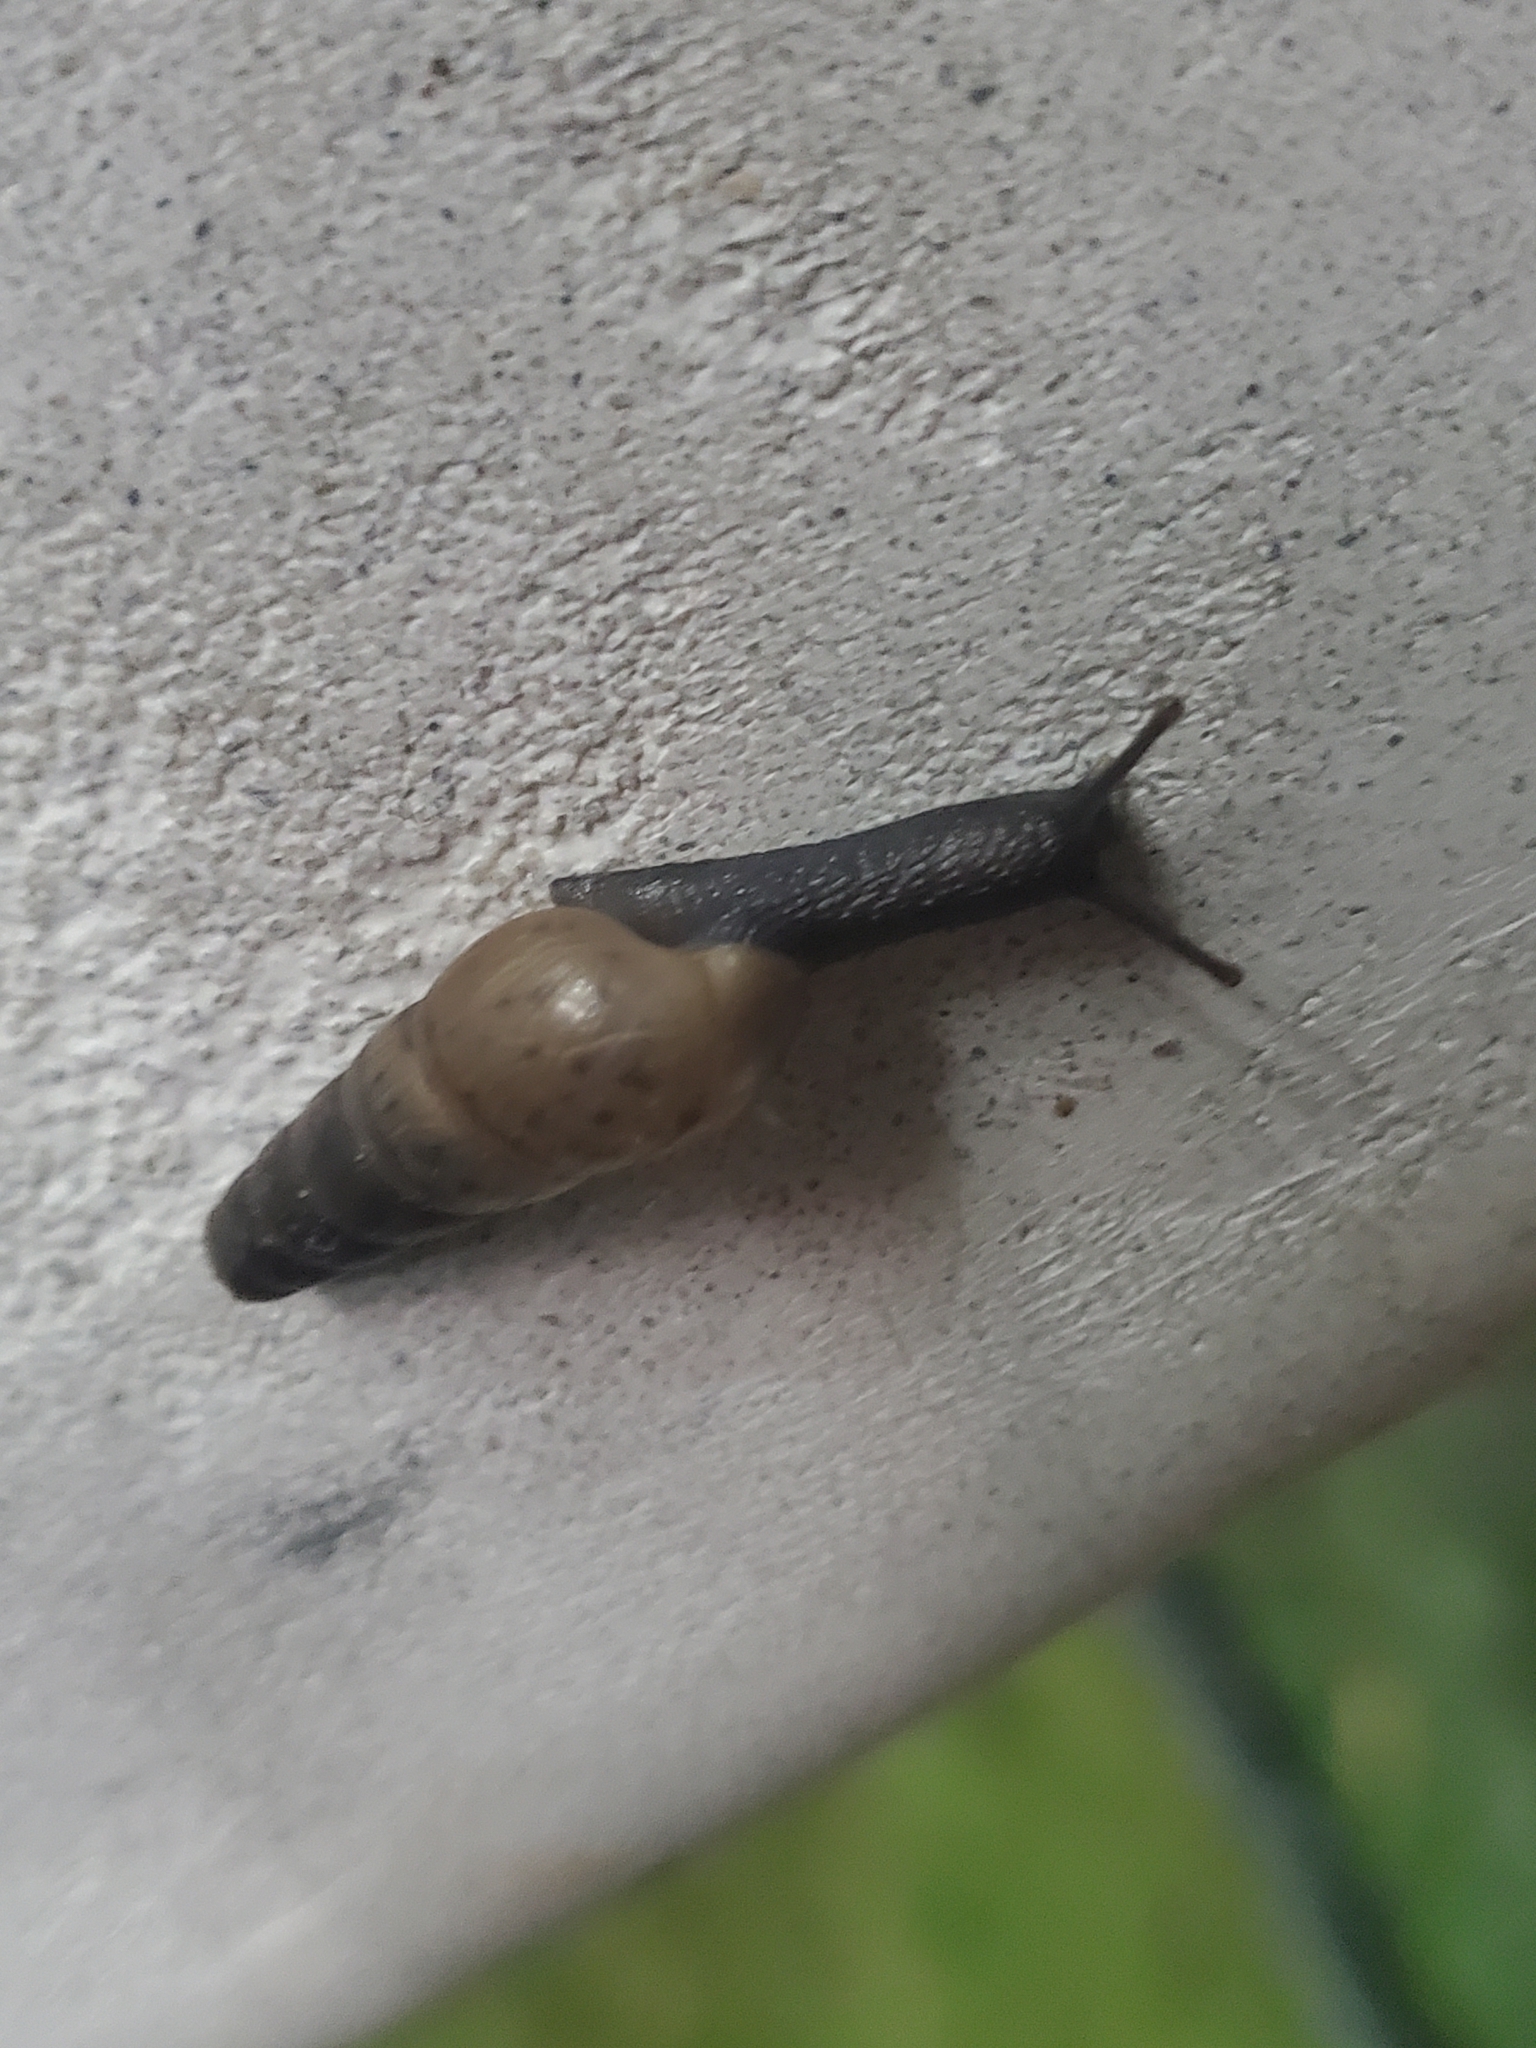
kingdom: Animalia
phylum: Mollusca
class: Gastropoda
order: Stylommatophora
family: Achatinidae
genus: Rumina
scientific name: Rumina decollata
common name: Decollate snail
